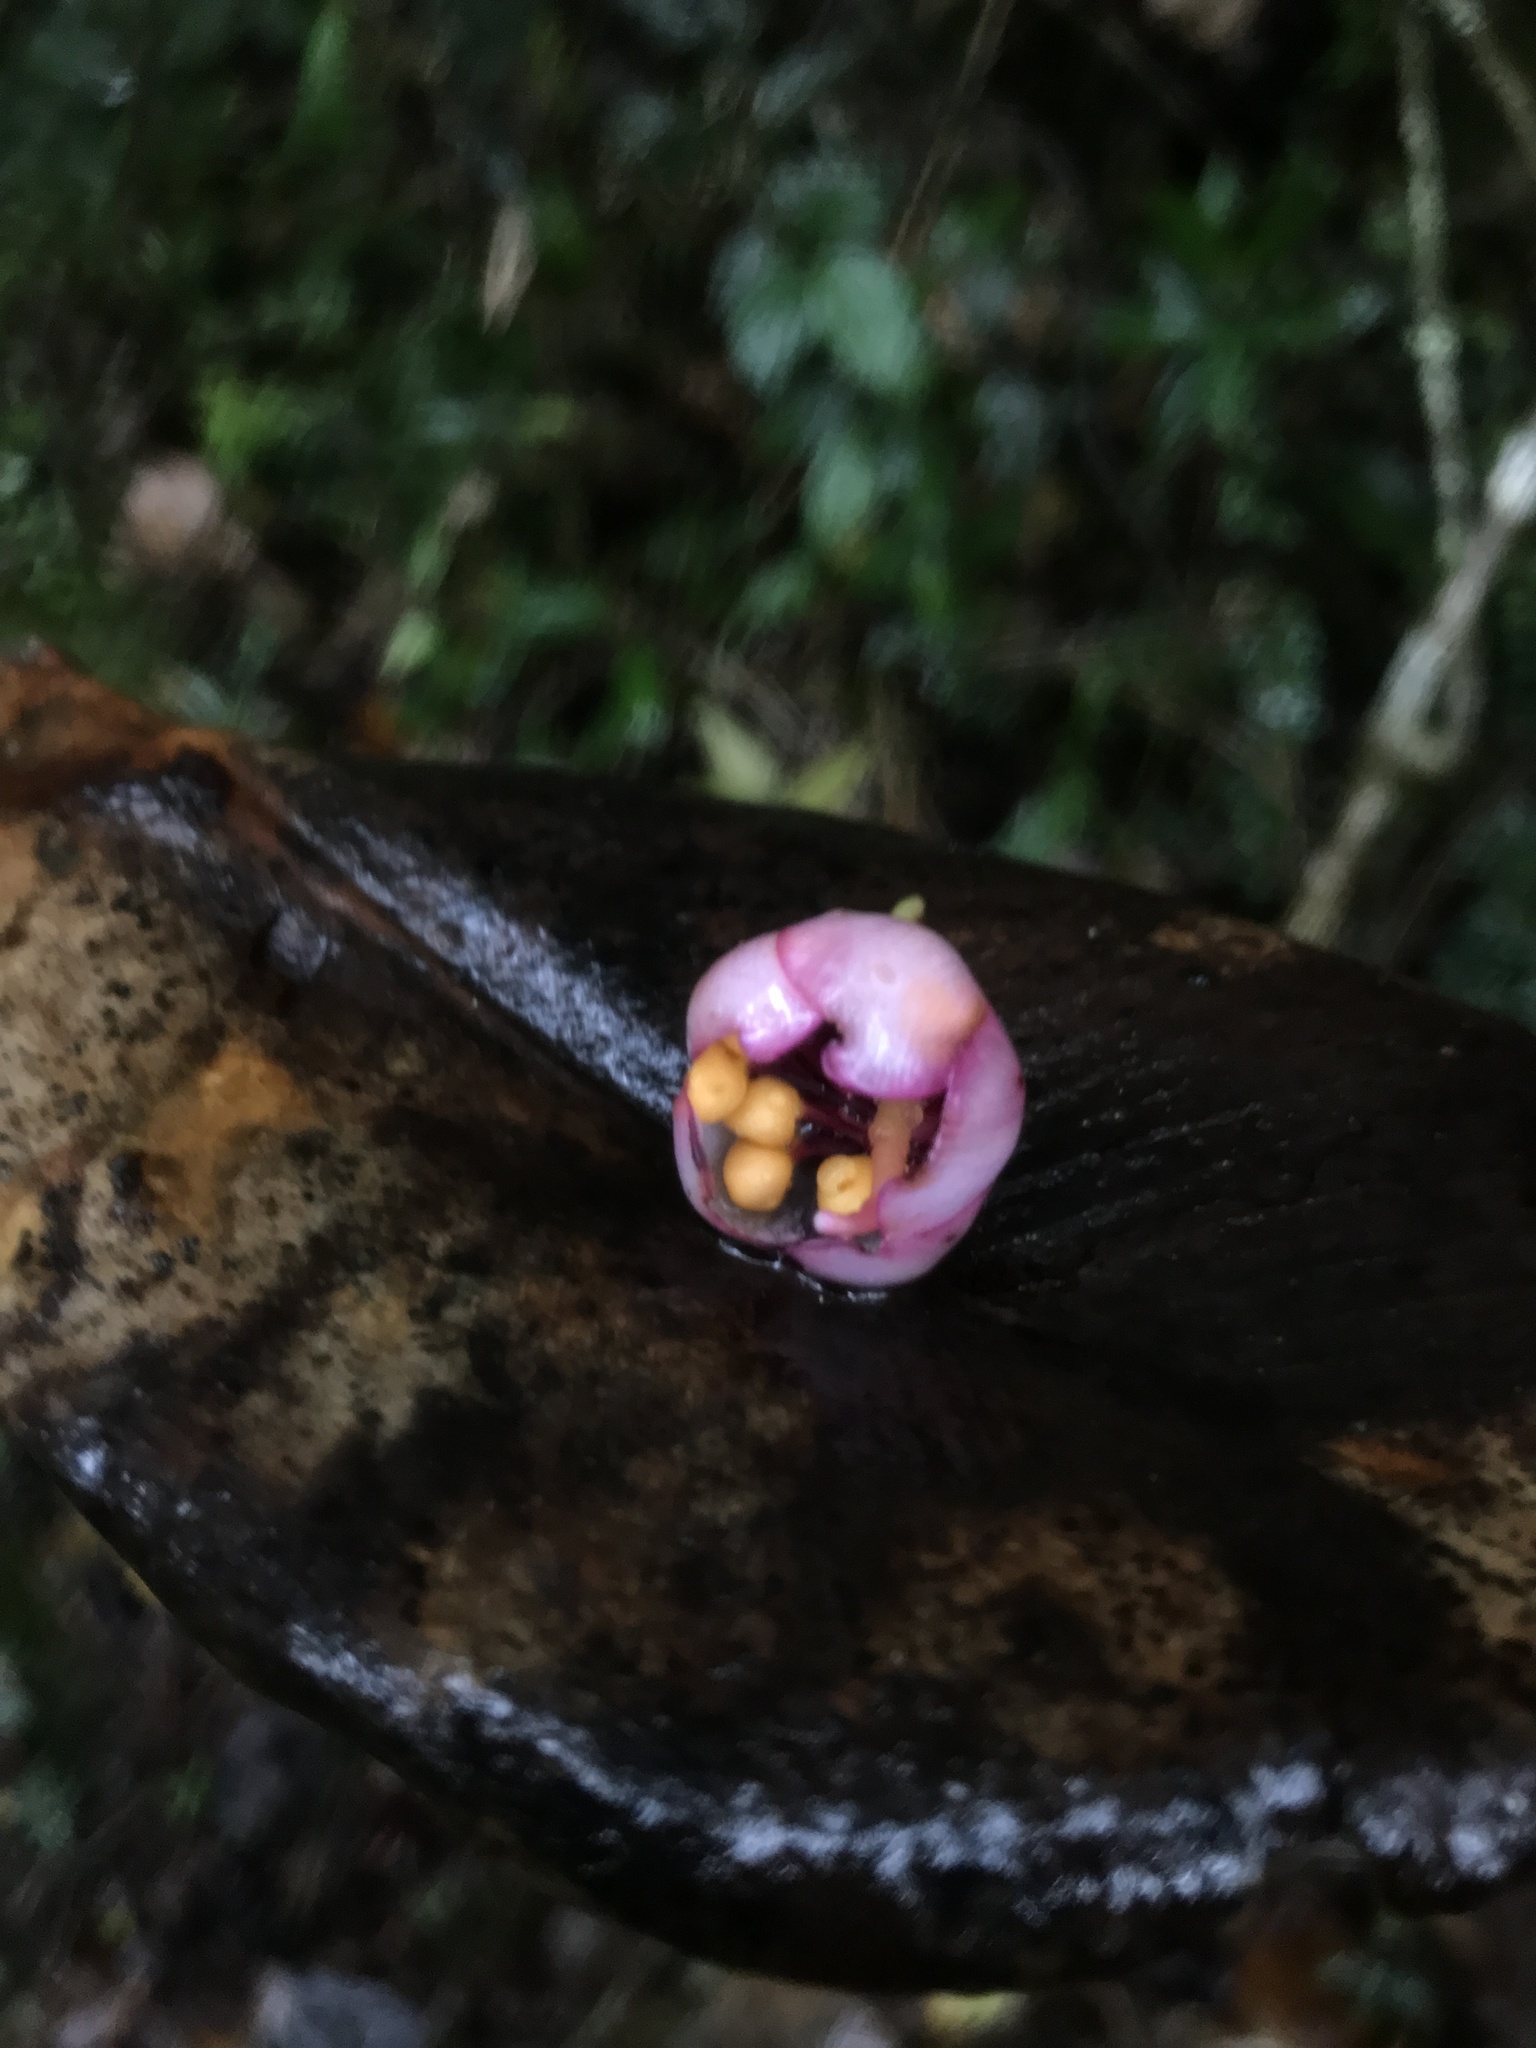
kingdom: Plantae
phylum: Tracheophyta
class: Magnoliopsida
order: Myrtales
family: Melastomataceae
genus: Axinaea
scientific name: Axinaea macrophylla
